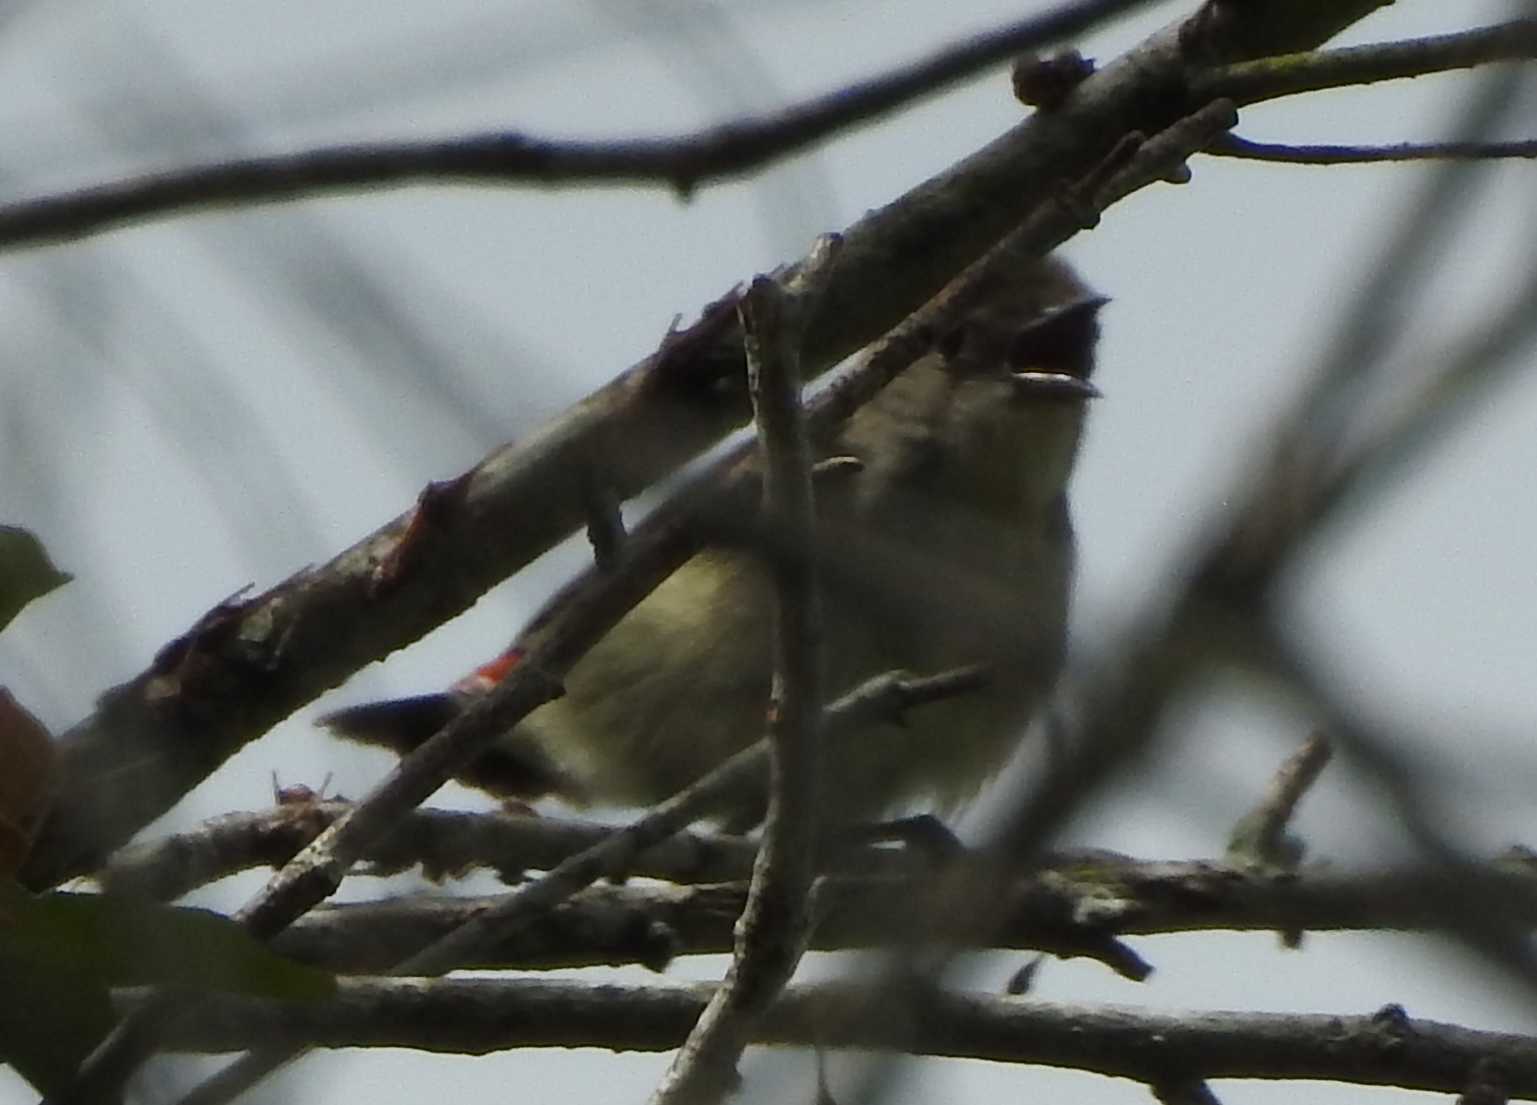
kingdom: Animalia
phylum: Chordata
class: Aves
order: Passeriformes
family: Dicaeidae
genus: Dicaeum
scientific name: Dicaeum cruentatum
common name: Scarlet-backed flowerpecker
